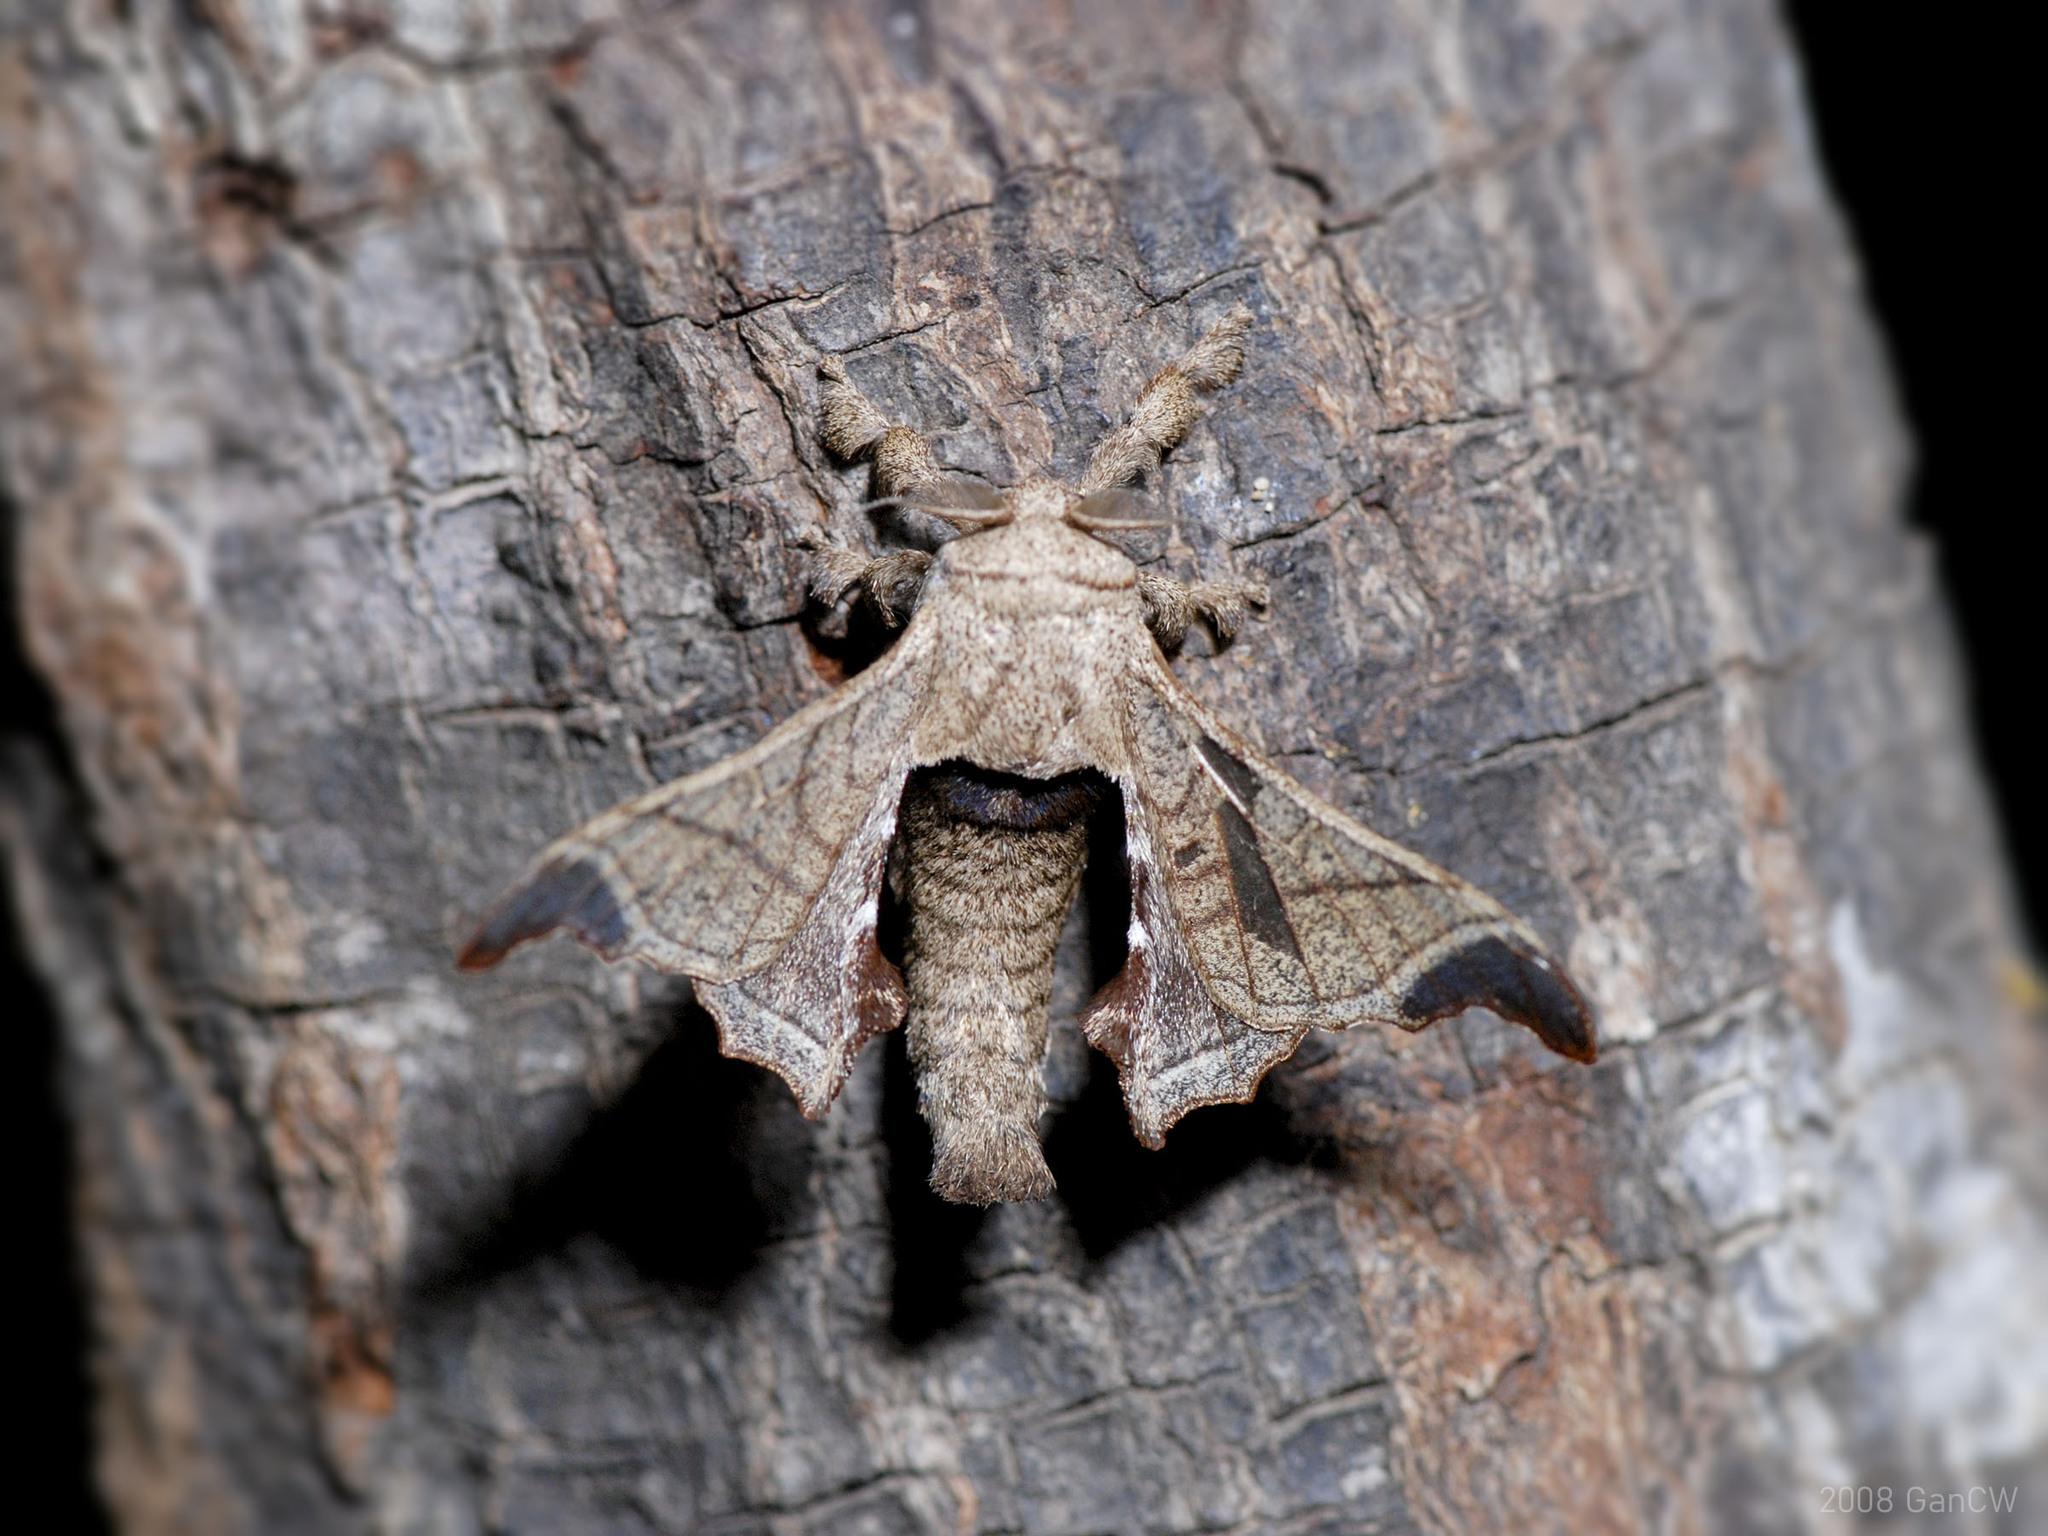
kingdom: Animalia
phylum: Arthropoda
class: Insecta
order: Lepidoptera
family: Bombycidae
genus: Bombyx
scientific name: Bombyx incomposita
